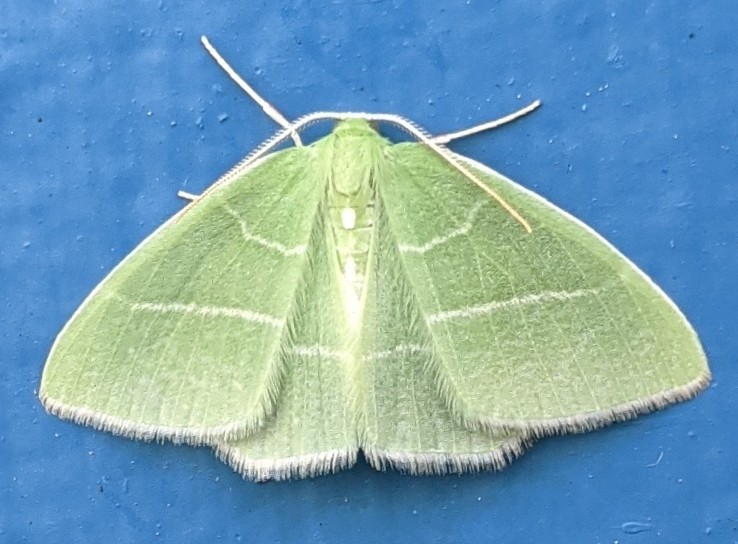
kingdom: Animalia
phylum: Arthropoda
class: Insecta
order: Lepidoptera
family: Geometridae
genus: Nemoria
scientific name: Nemoria mimosaria
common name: White-fringed emerald
